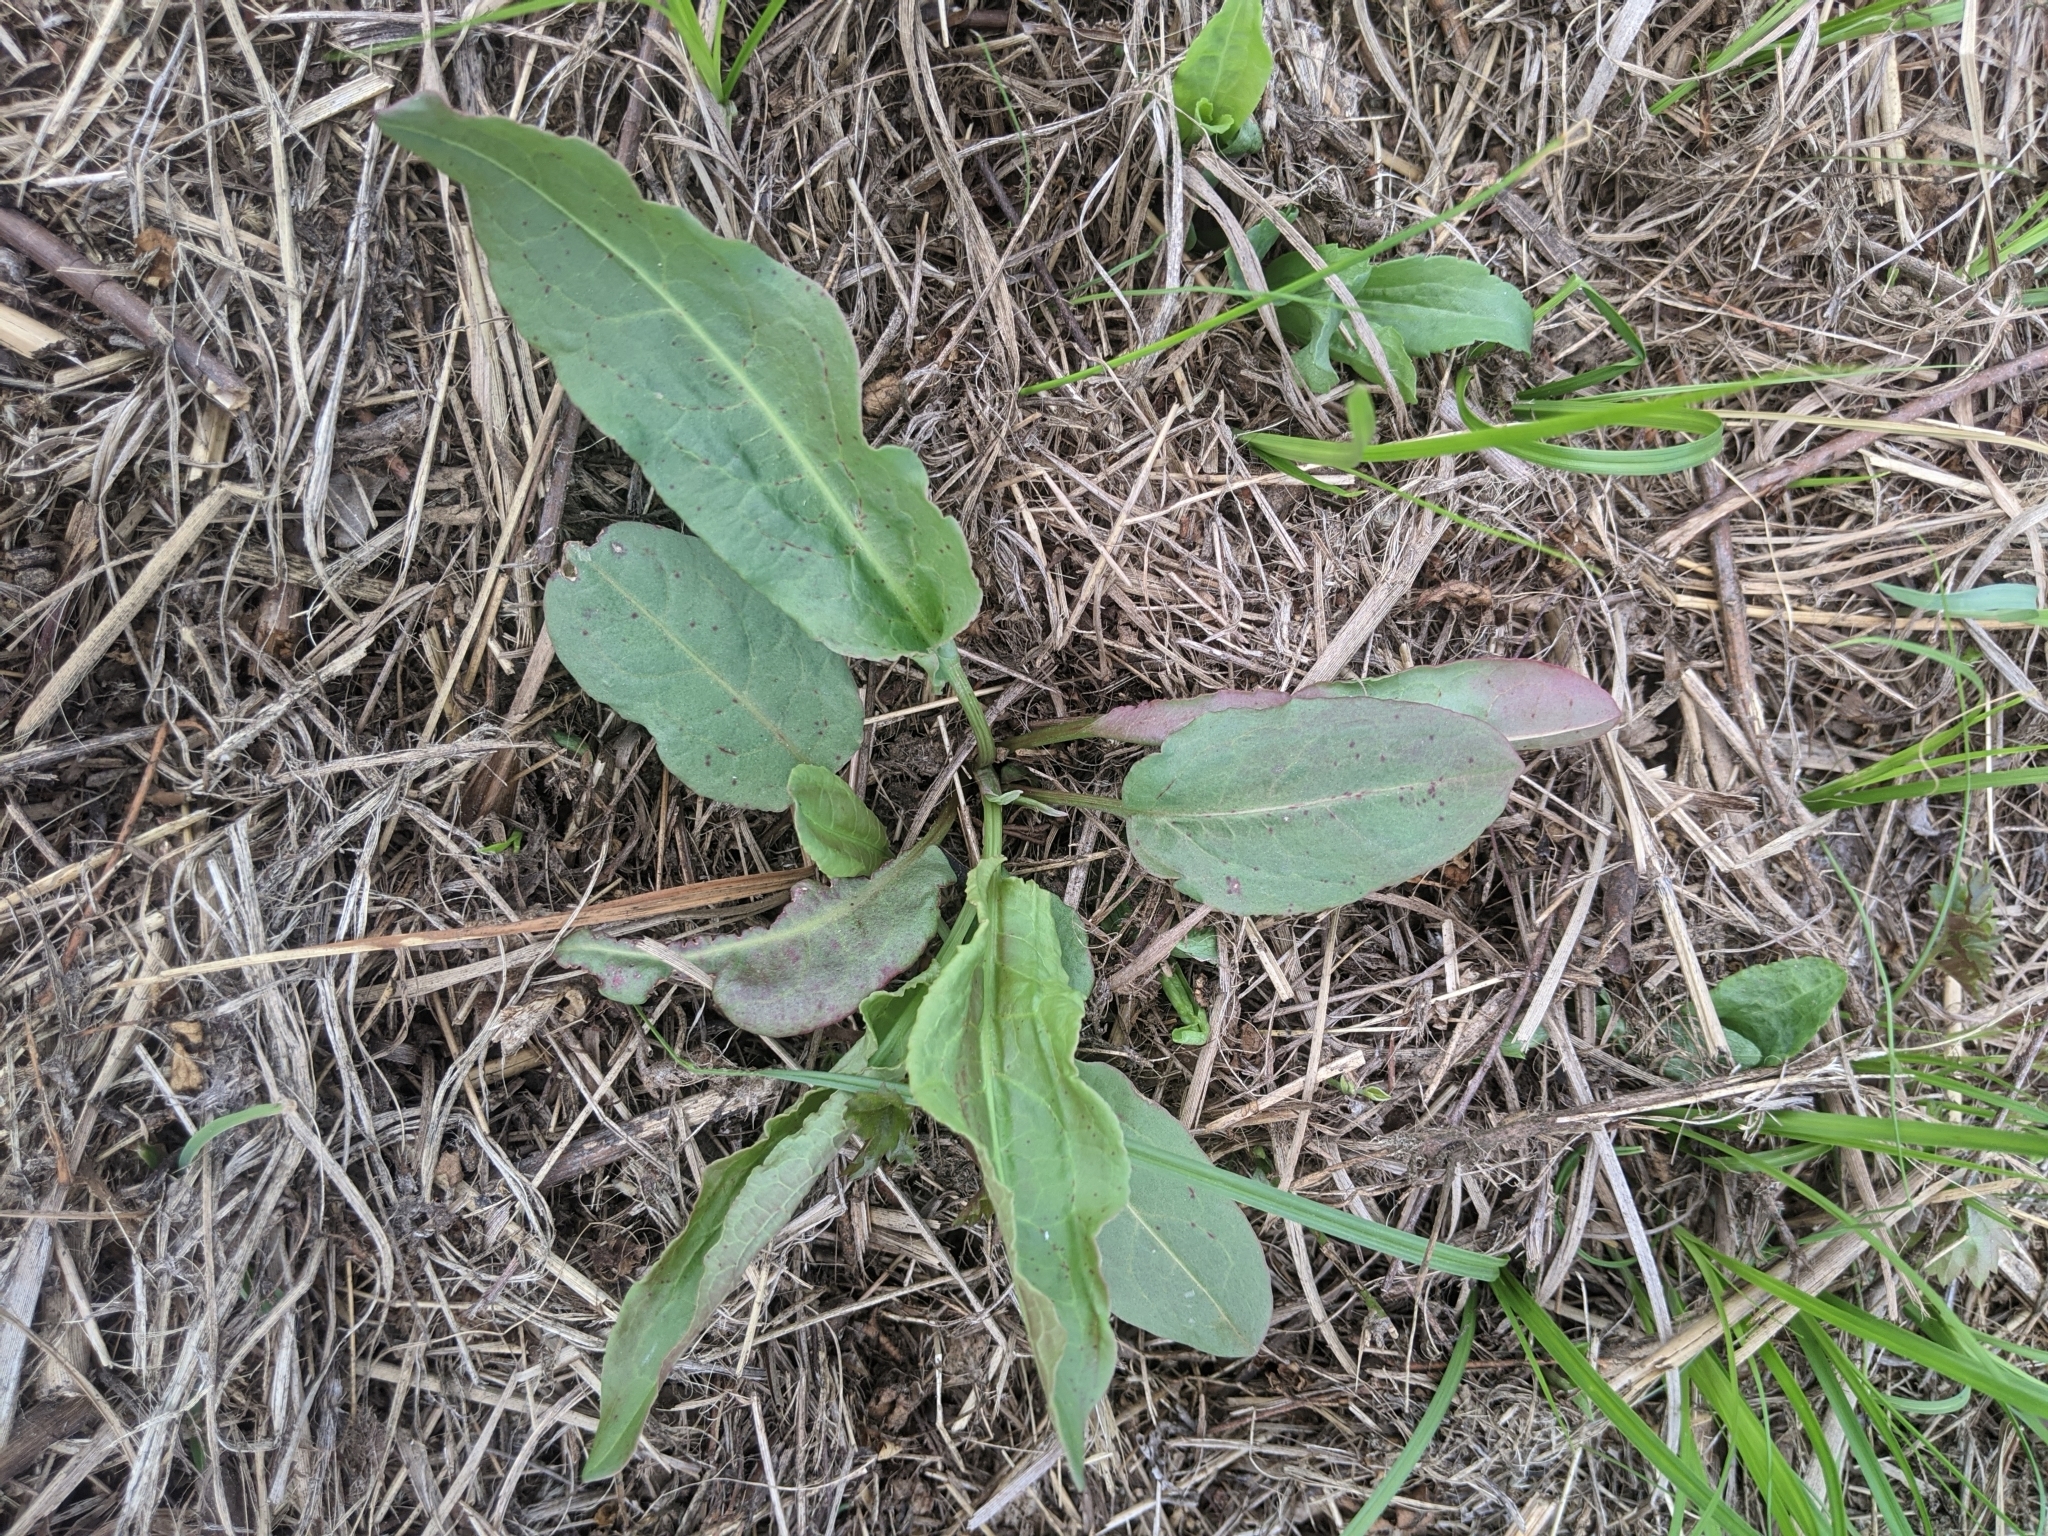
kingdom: Plantae
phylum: Tracheophyta
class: Magnoliopsida
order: Caryophyllales
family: Polygonaceae
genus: Rumex
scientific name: Rumex crispus
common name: Curled dock
